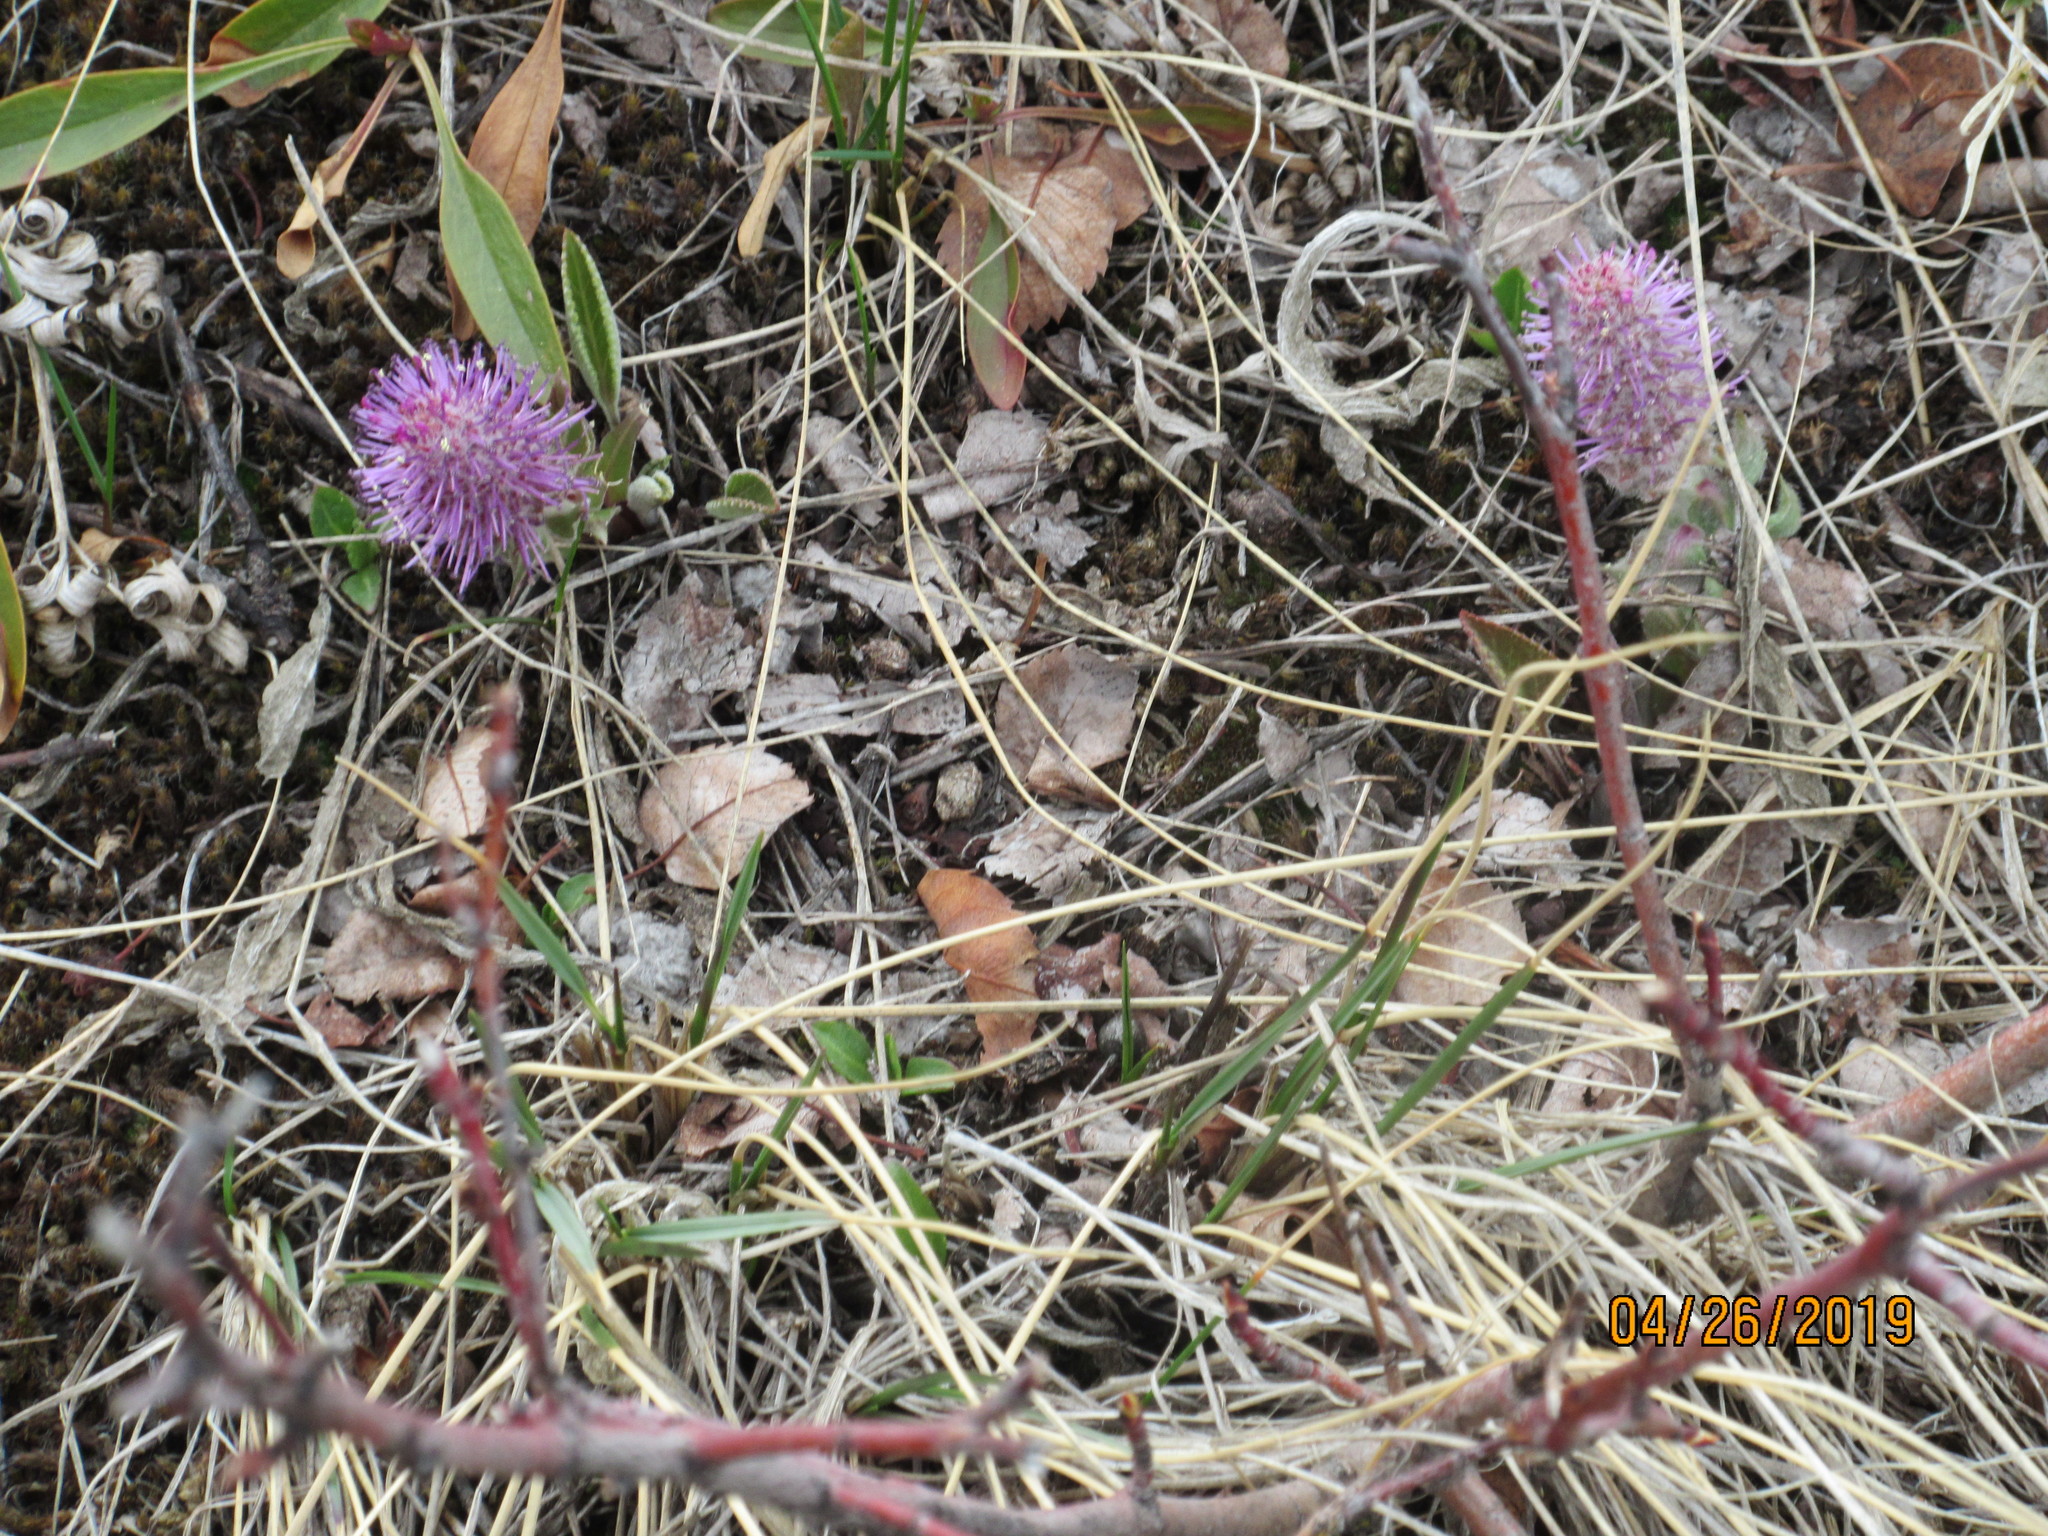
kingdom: Plantae
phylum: Tracheophyta
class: Magnoliopsida
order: Lamiales
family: Plantaginaceae
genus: Synthyris
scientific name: Synthyris wyomingensis
